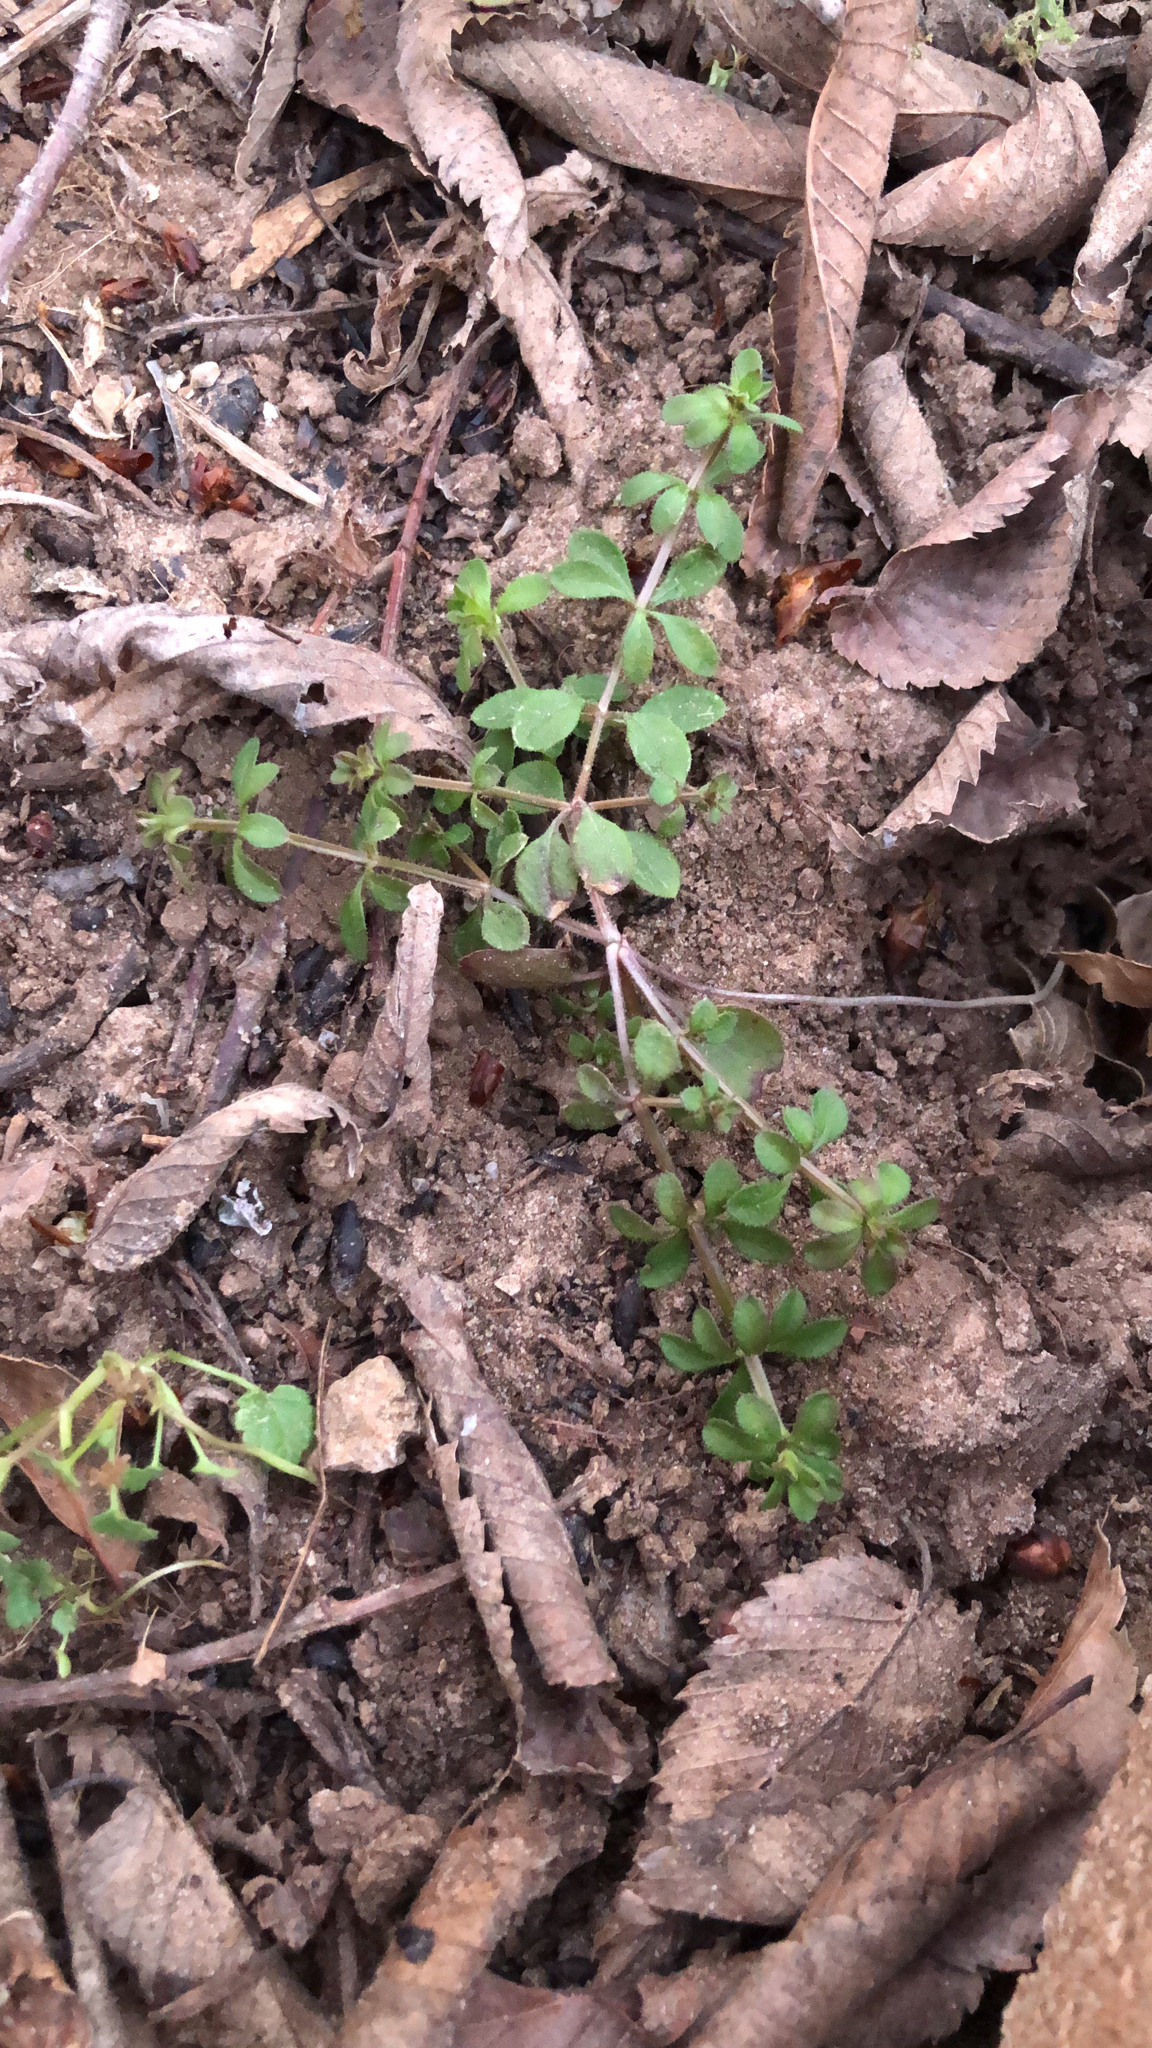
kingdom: Plantae
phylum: Tracheophyta
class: Magnoliopsida
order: Gentianales
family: Rubiaceae
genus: Galium
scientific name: Galium aparine
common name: Cleavers
